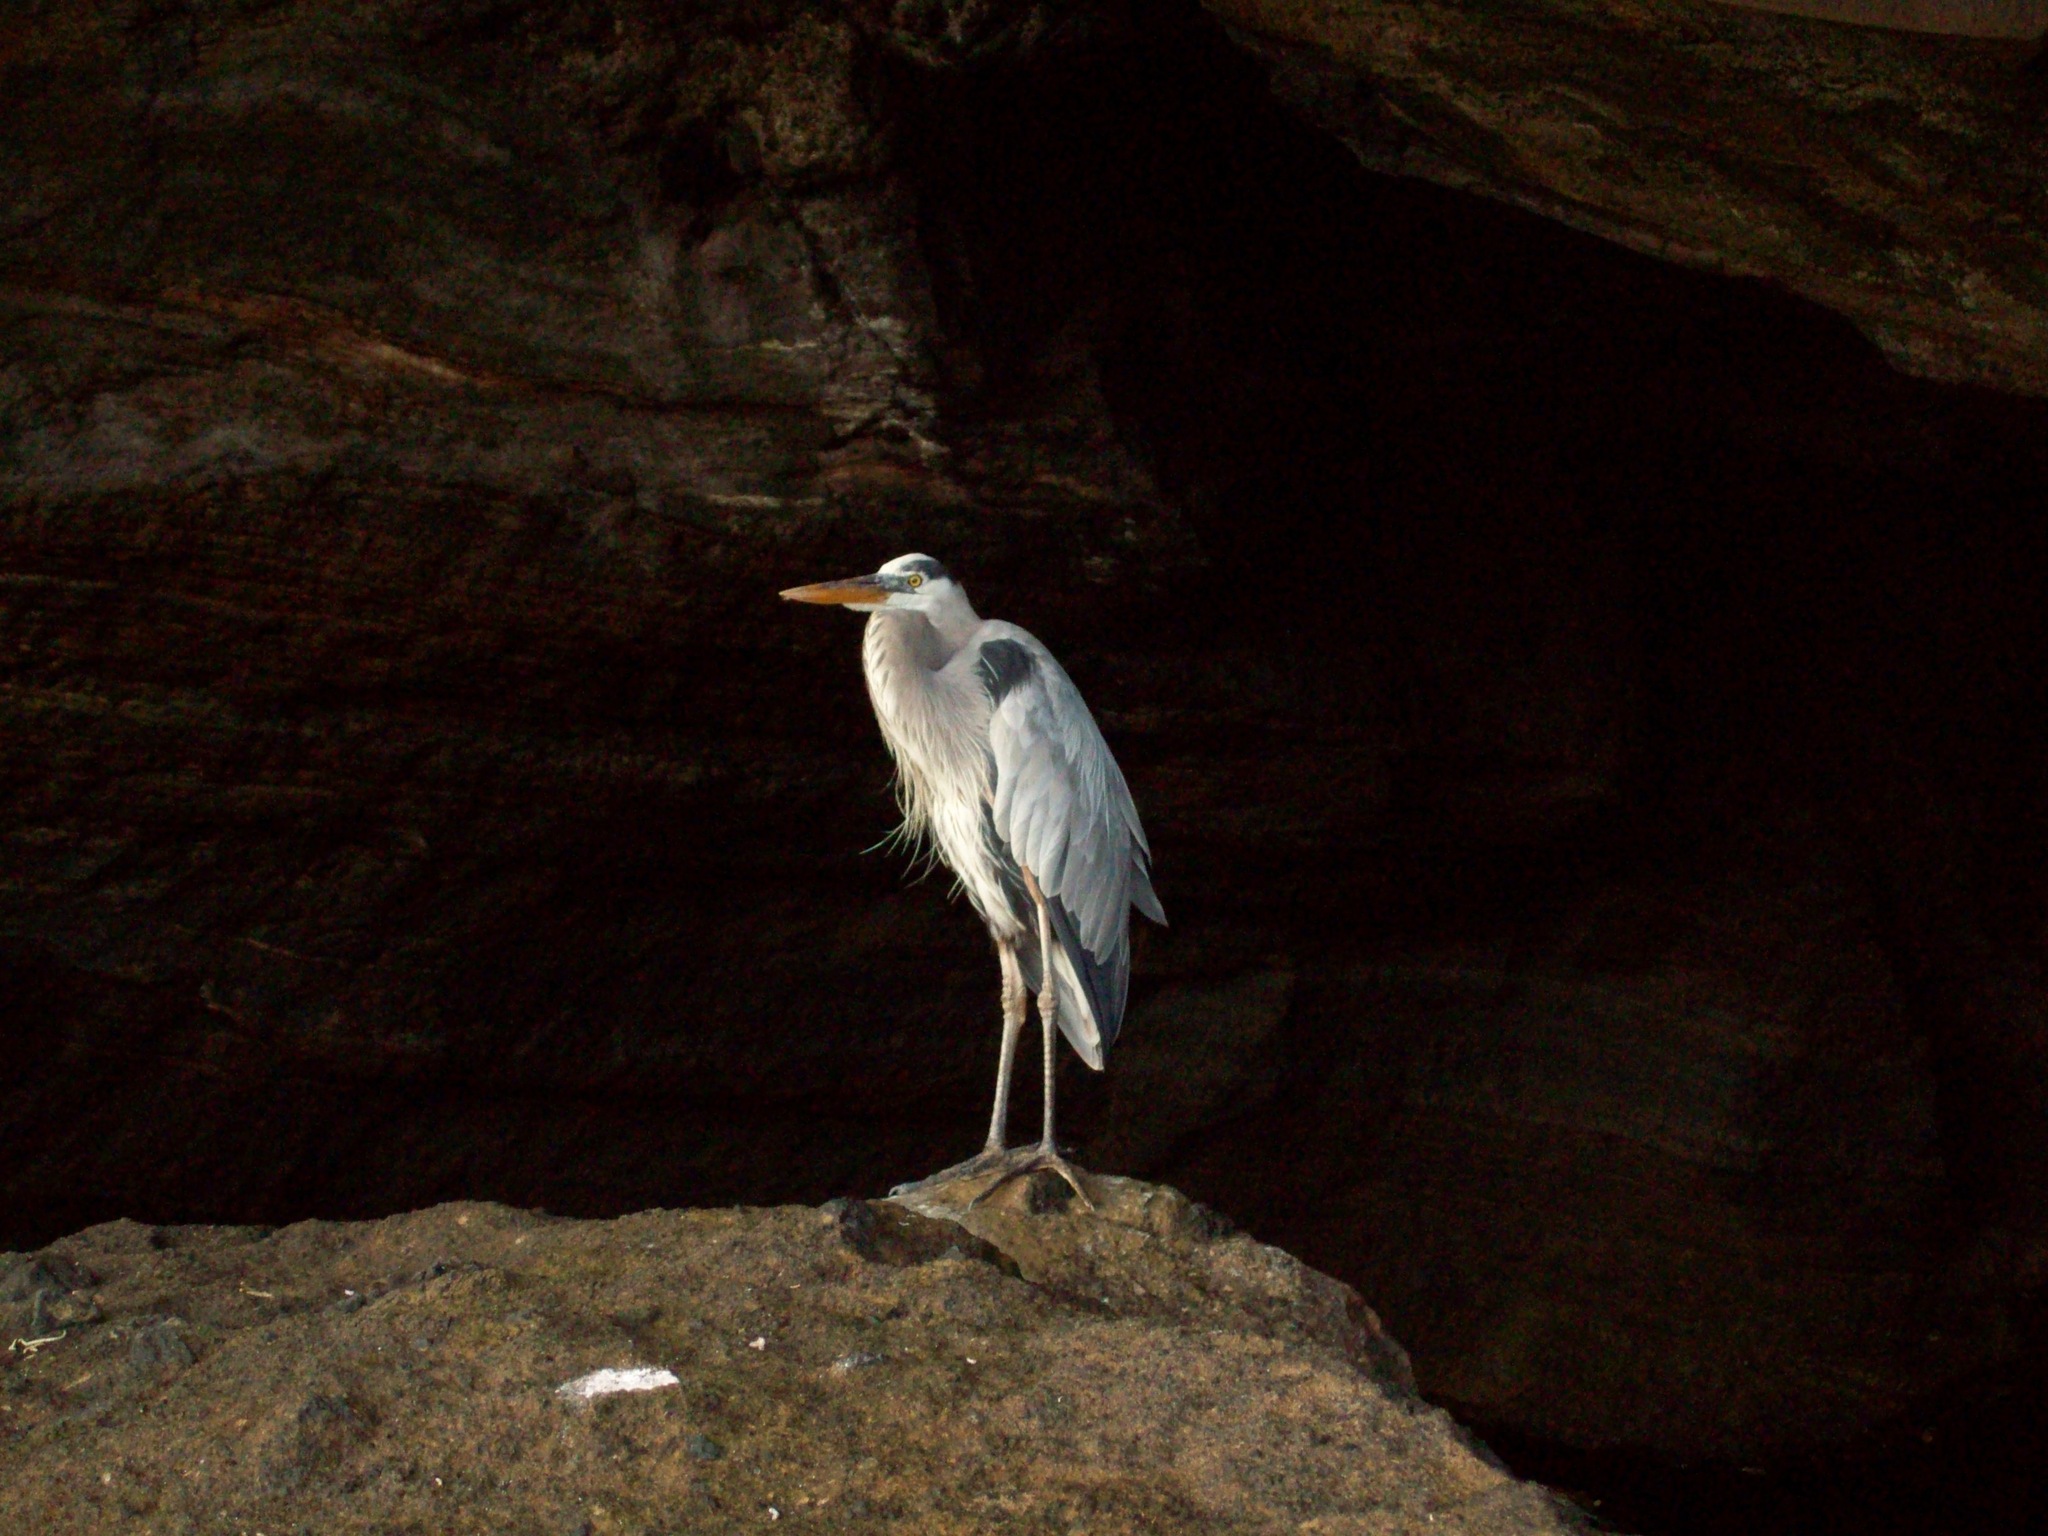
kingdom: Animalia
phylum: Chordata
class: Aves
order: Pelecaniformes
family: Ardeidae
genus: Ardea
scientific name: Ardea herodias
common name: Great blue heron
